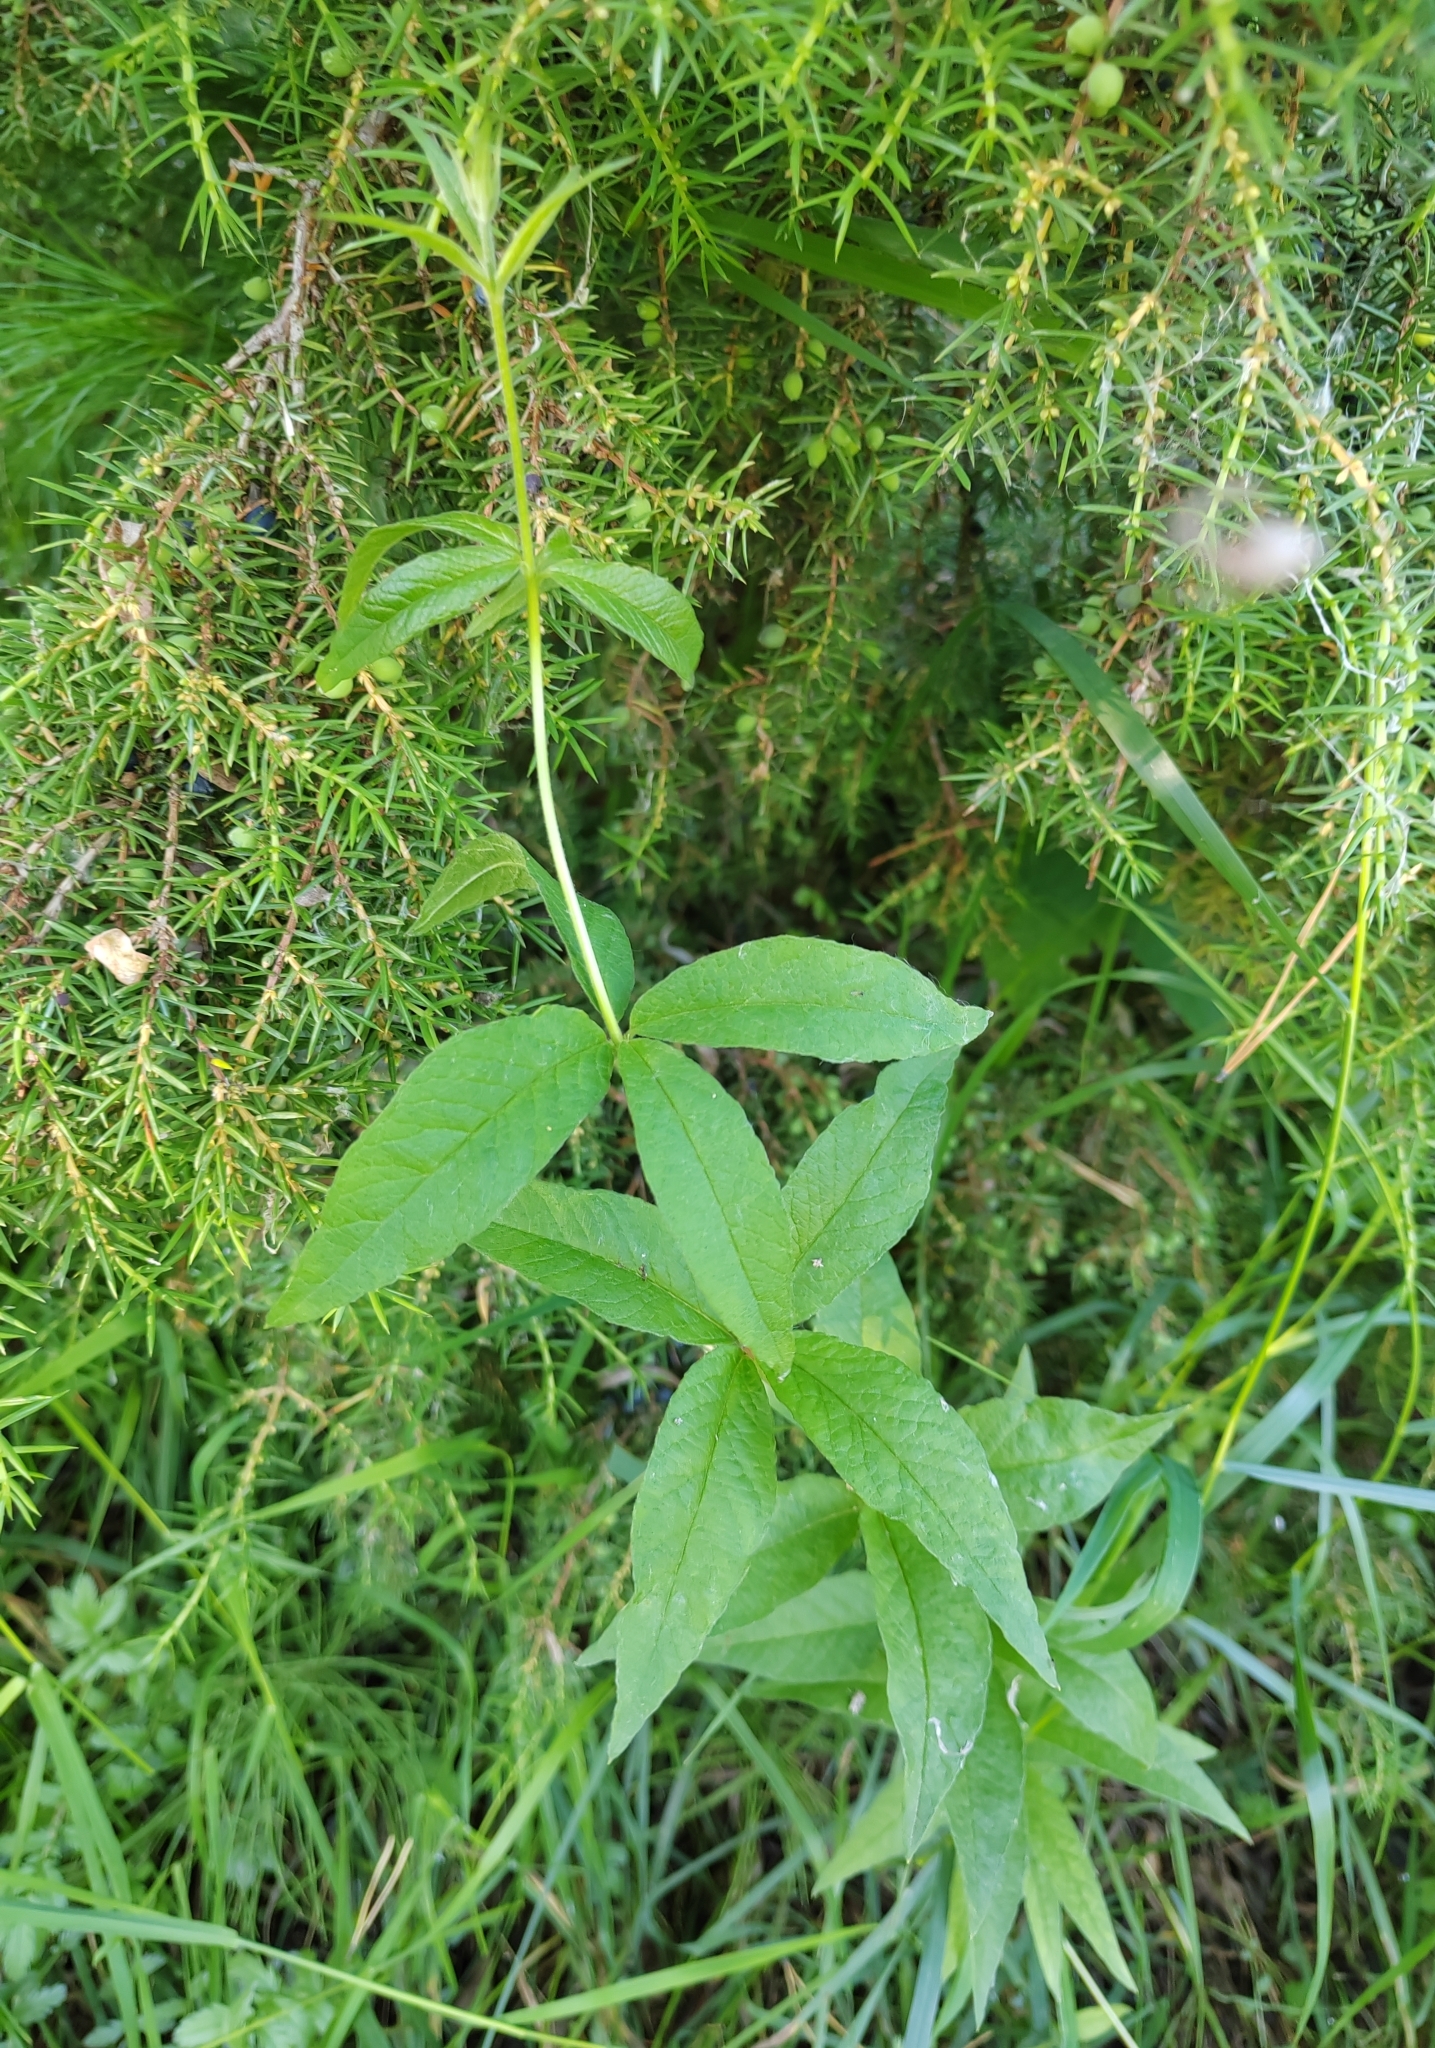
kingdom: Plantae
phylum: Tracheophyta
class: Magnoliopsida
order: Ericales
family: Primulaceae
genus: Lysimachia
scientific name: Lysimachia vulgaris
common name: Yellow loosestrife
